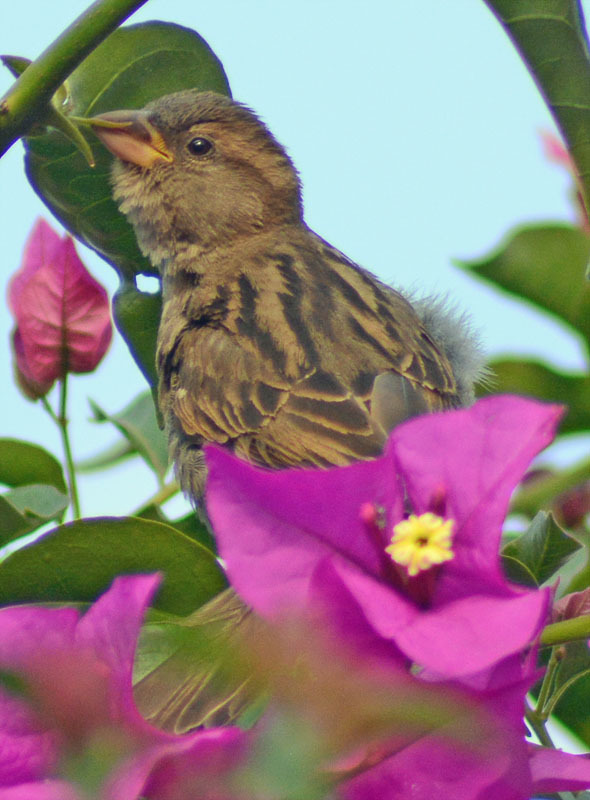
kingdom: Animalia
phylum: Chordata
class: Aves
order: Passeriformes
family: Passeridae
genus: Passer
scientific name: Passer domesticus
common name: House sparrow
